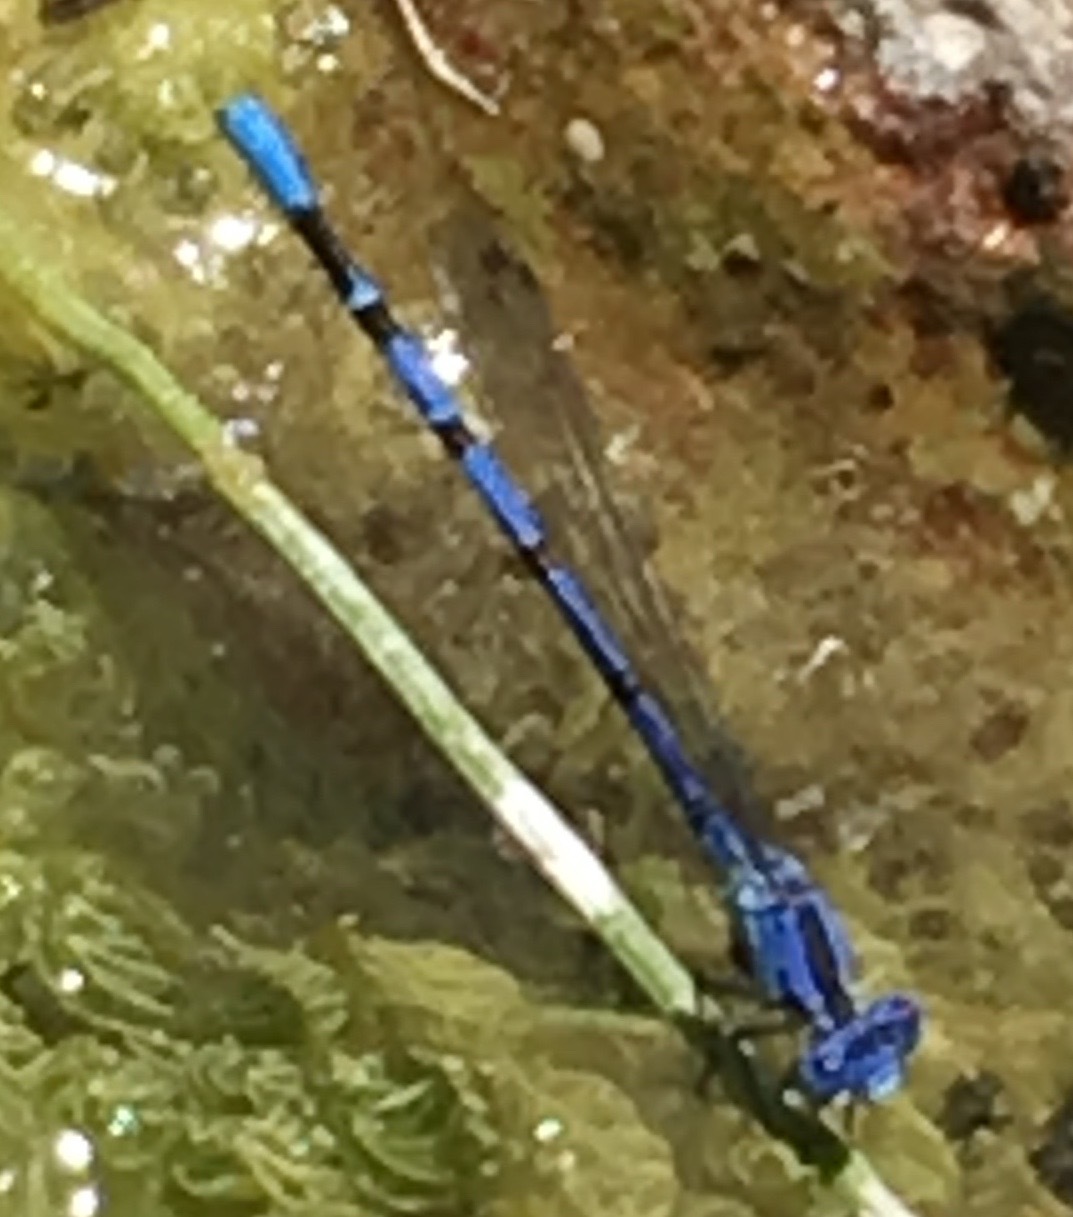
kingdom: Animalia
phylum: Arthropoda
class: Insecta
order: Odonata
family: Coenagrionidae
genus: Argia
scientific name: Argia vivida
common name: Vivid dancer
